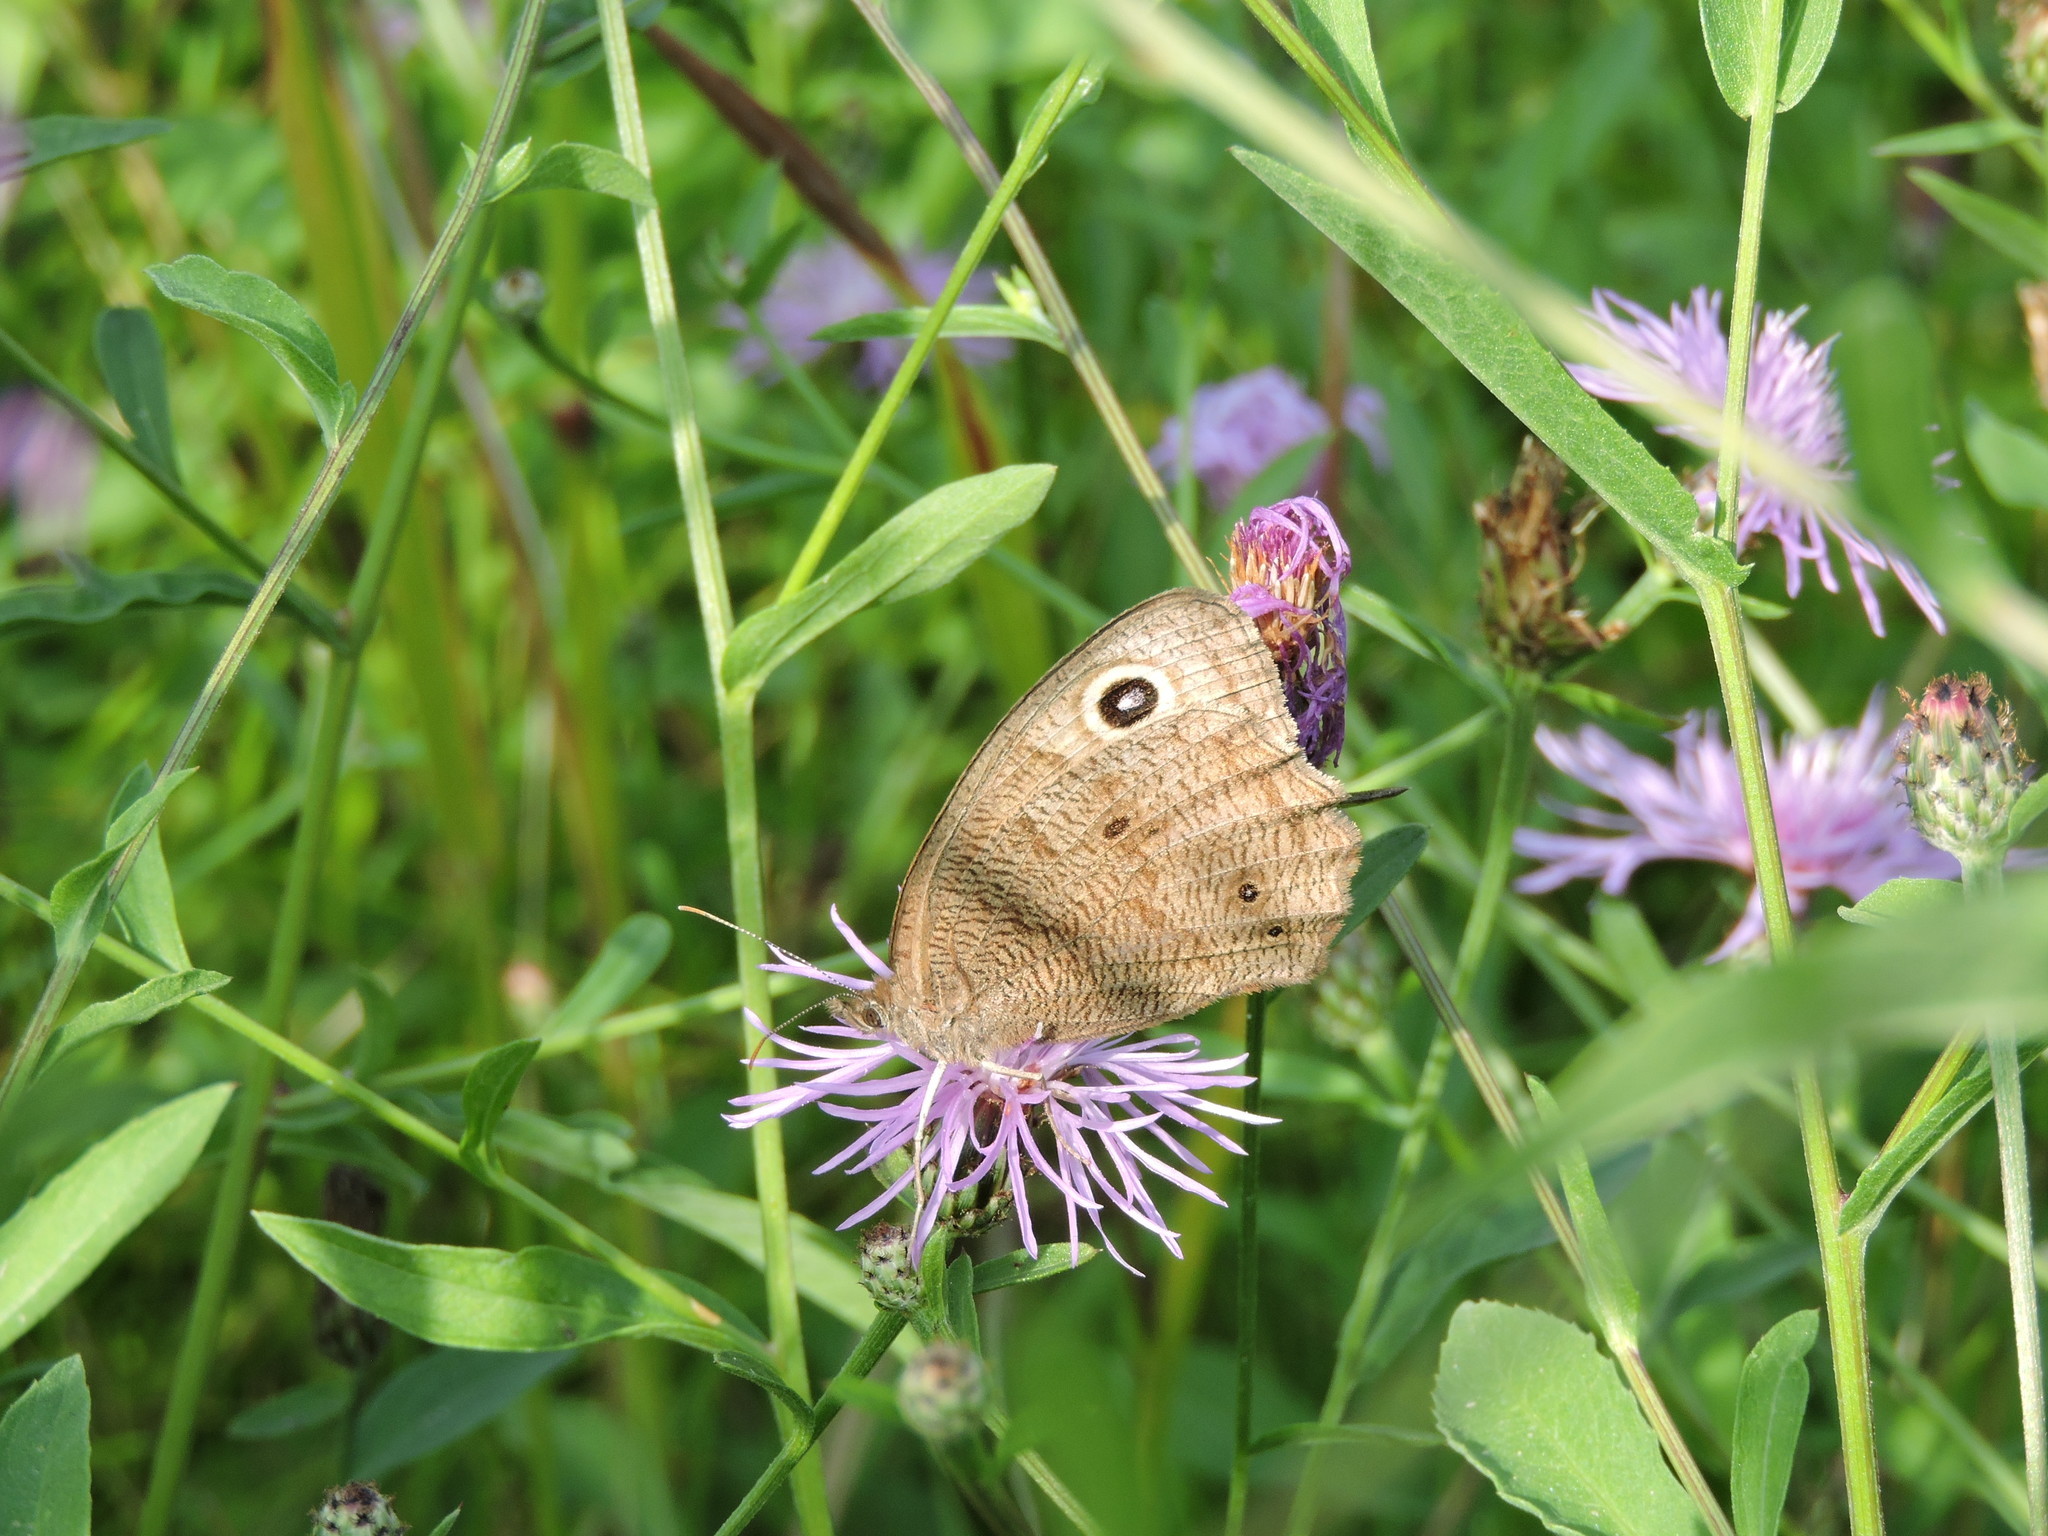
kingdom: Animalia
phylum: Arthropoda
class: Insecta
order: Lepidoptera
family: Nymphalidae
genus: Cercyonis
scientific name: Cercyonis pegala
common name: Common wood-nymph
